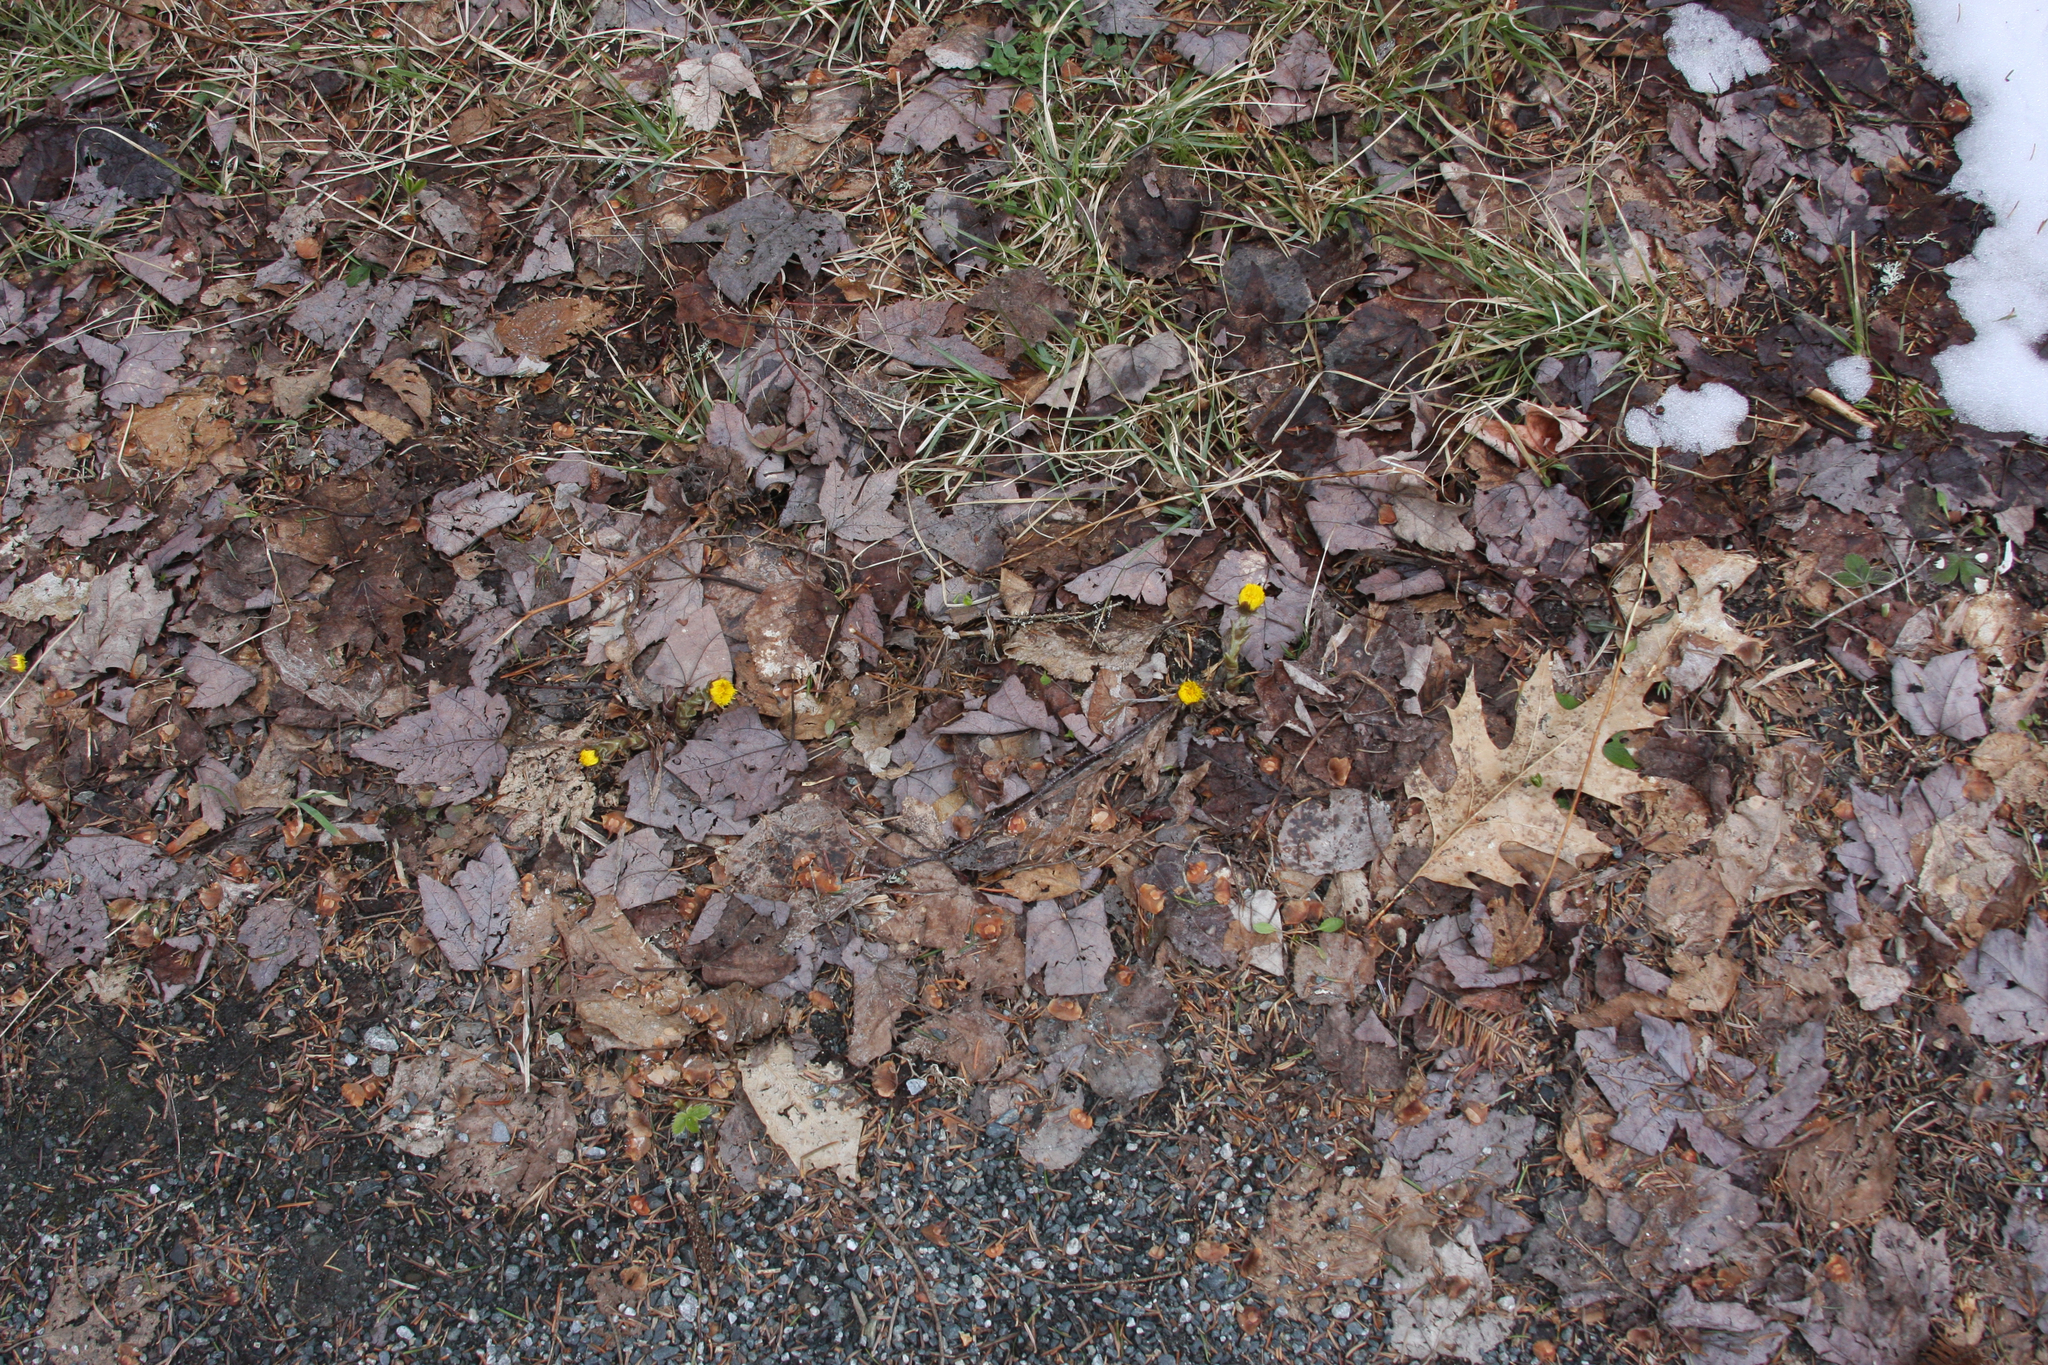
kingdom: Plantae
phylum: Tracheophyta
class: Magnoliopsida
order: Asterales
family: Asteraceae
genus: Tussilago
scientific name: Tussilago farfara
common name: Coltsfoot
